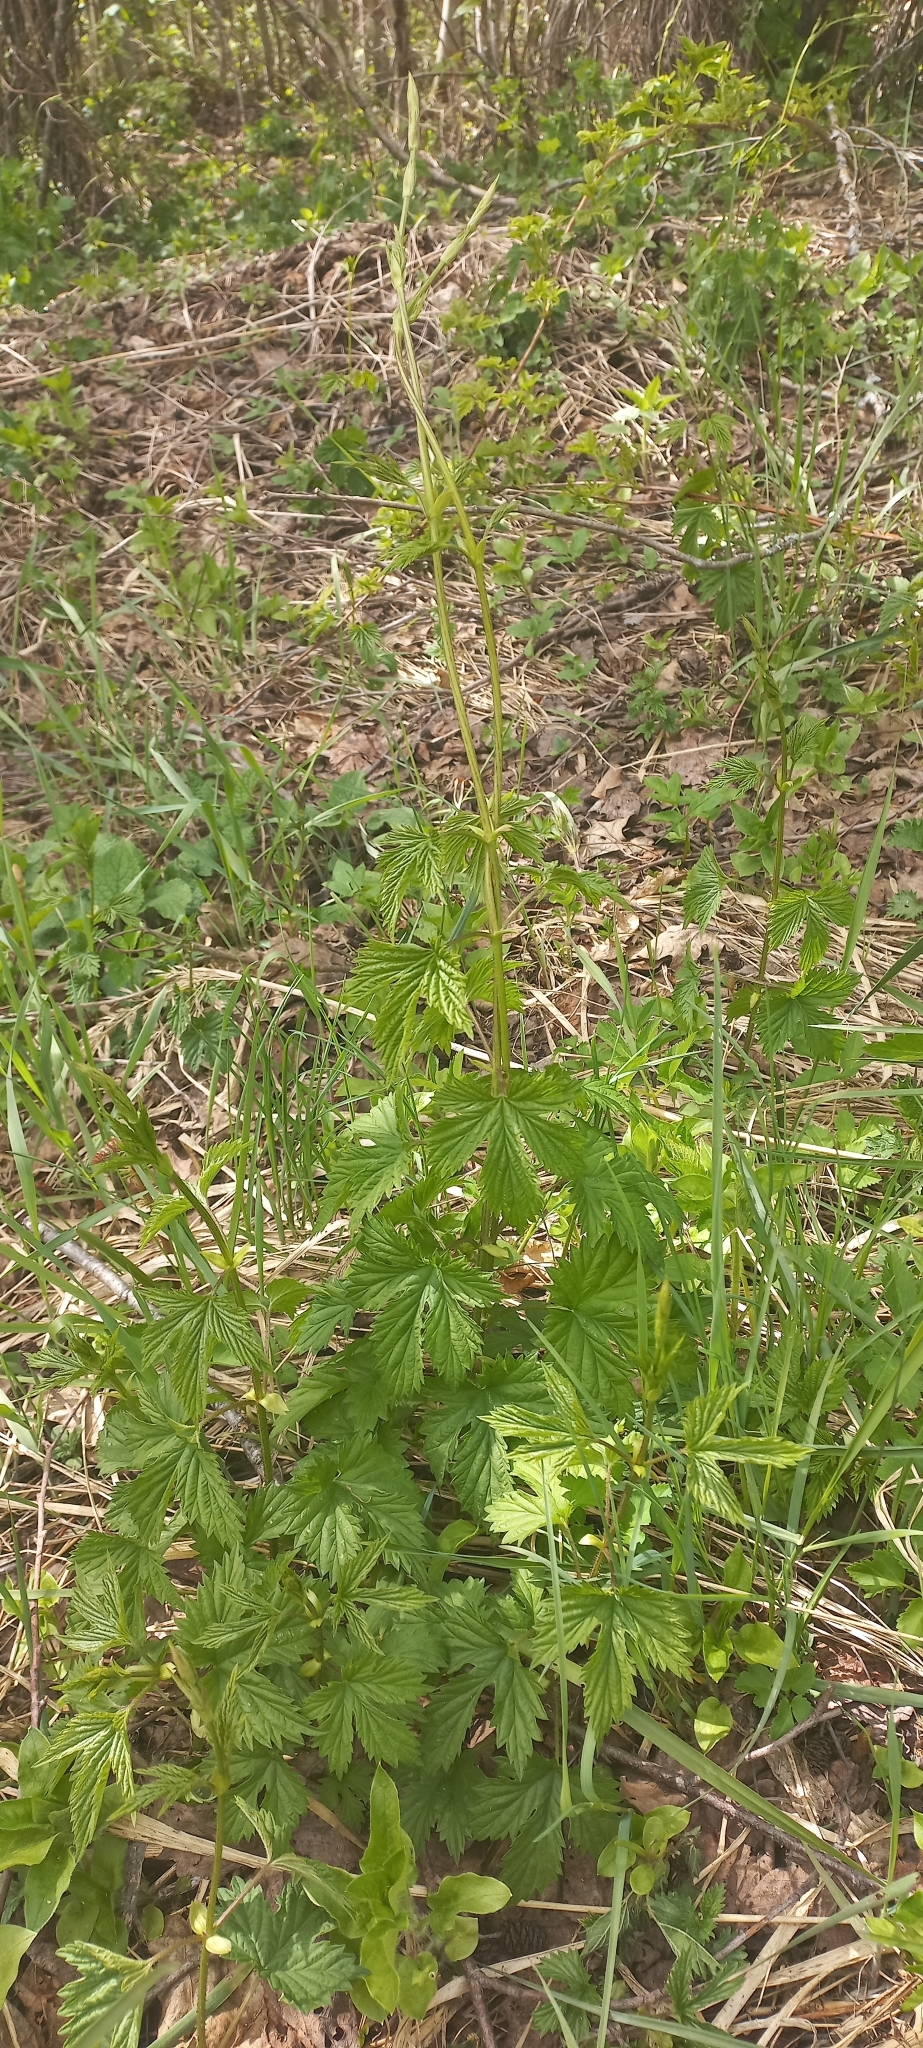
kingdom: Plantae
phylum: Tracheophyta
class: Magnoliopsida
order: Rosales
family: Cannabaceae
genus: Humulus
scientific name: Humulus lupulus
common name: Hop
